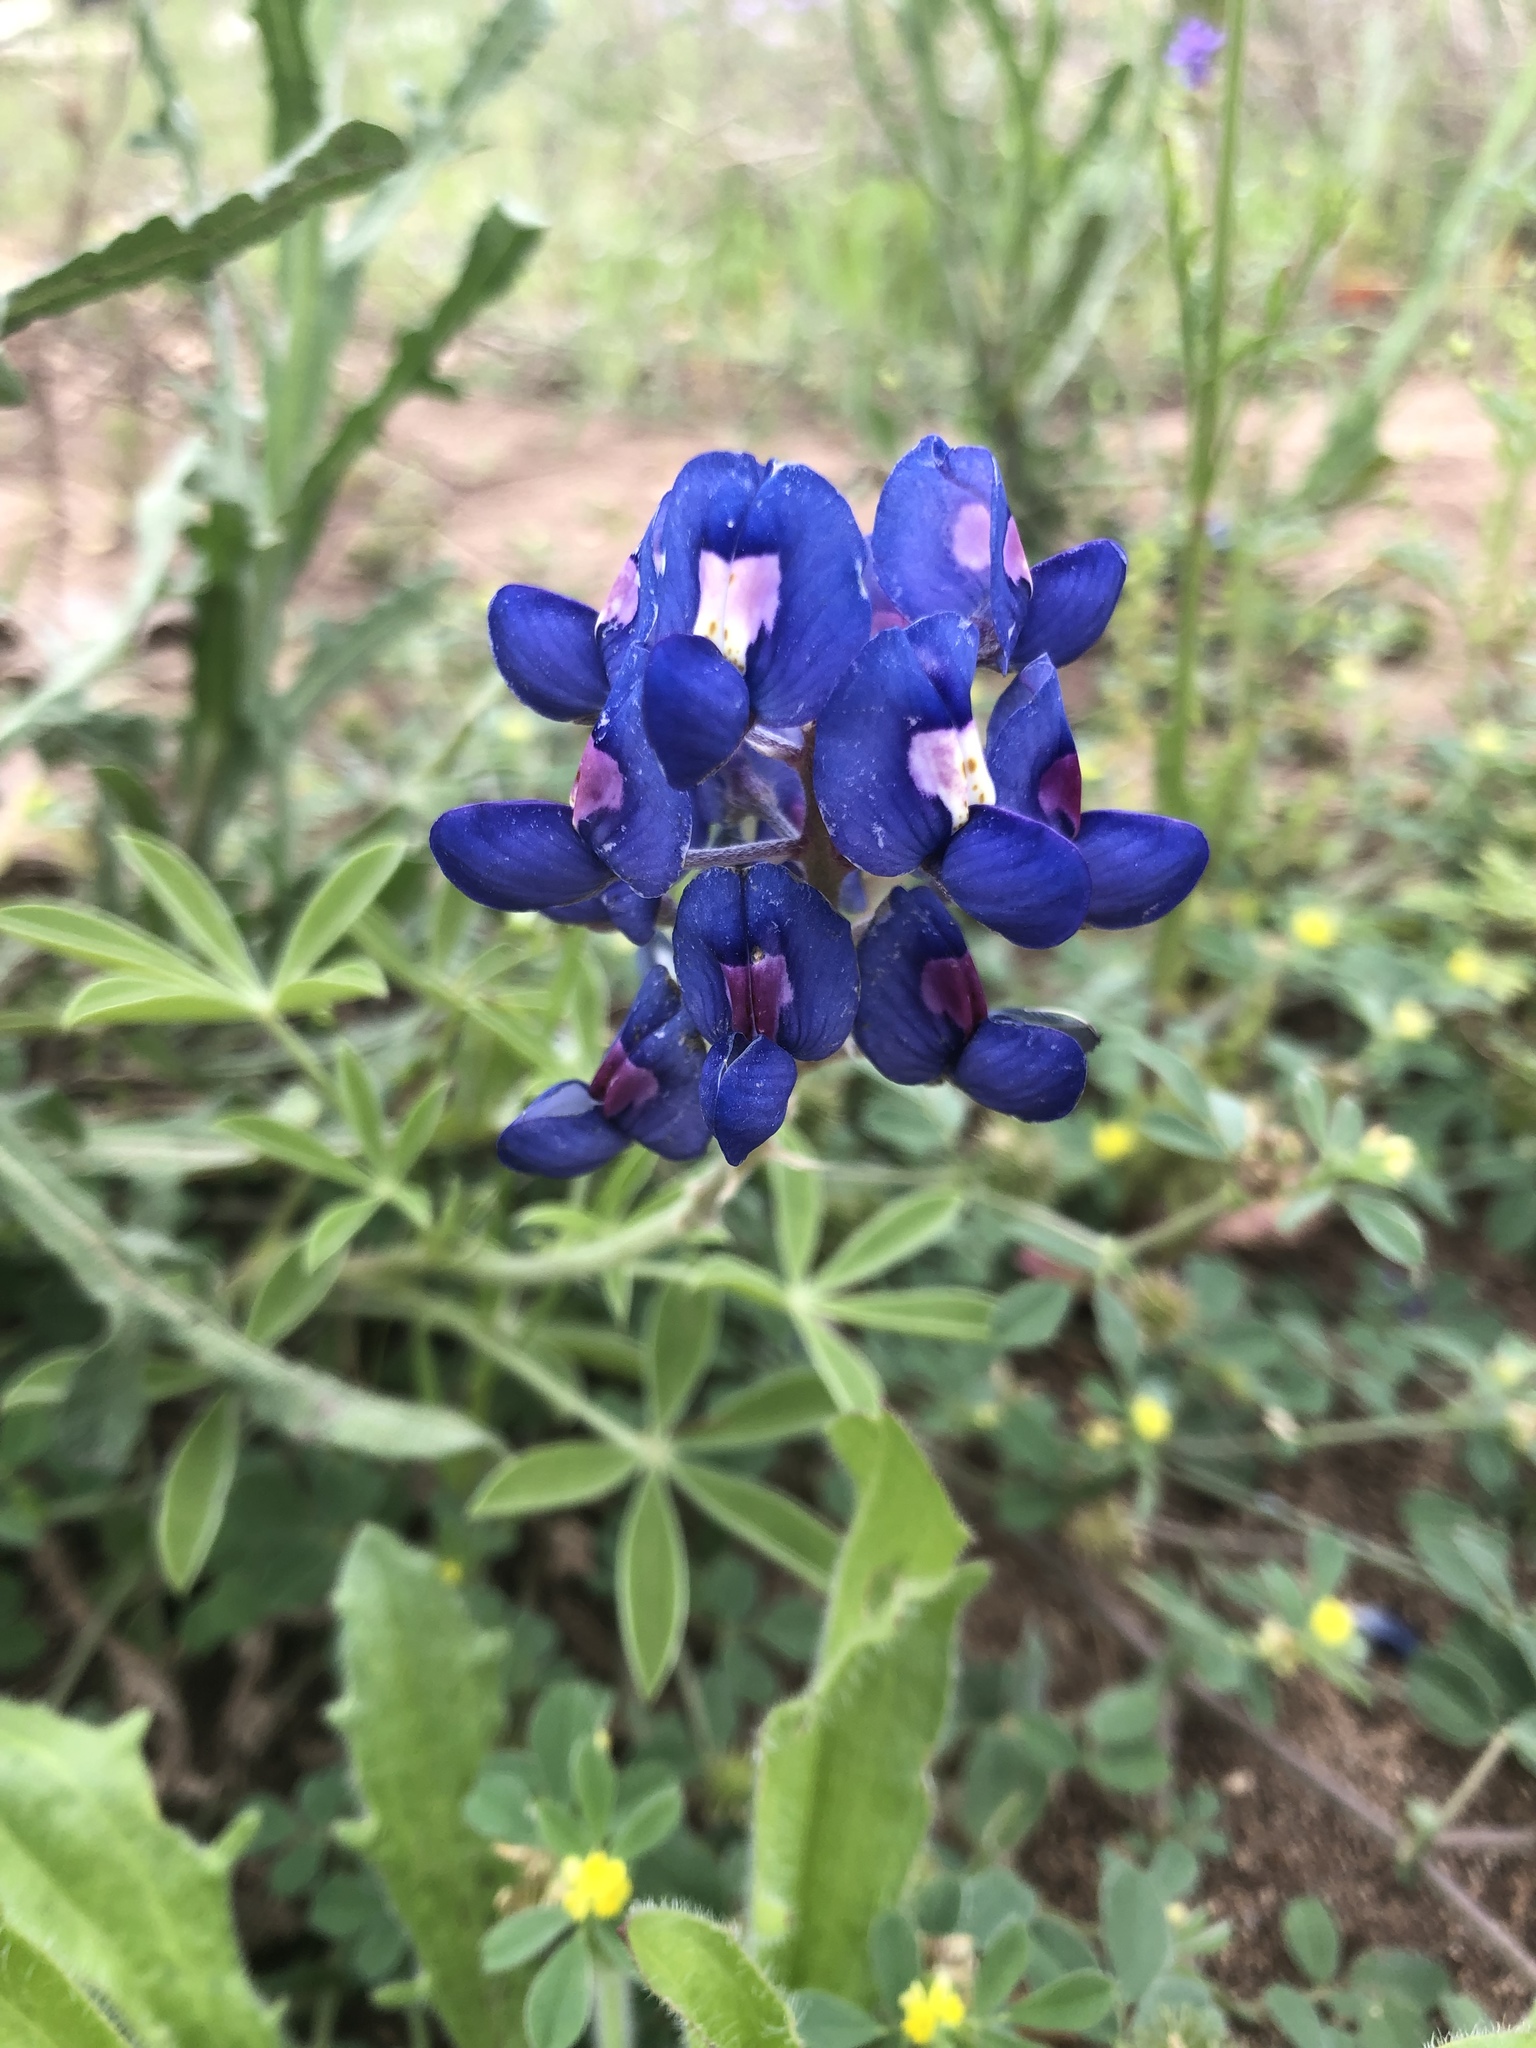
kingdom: Plantae
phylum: Tracheophyta
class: Magnoliopsida
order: Fabales
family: Fabaceae
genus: Lupinus
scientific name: Lupinus texensis
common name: Texas bluebonnet
